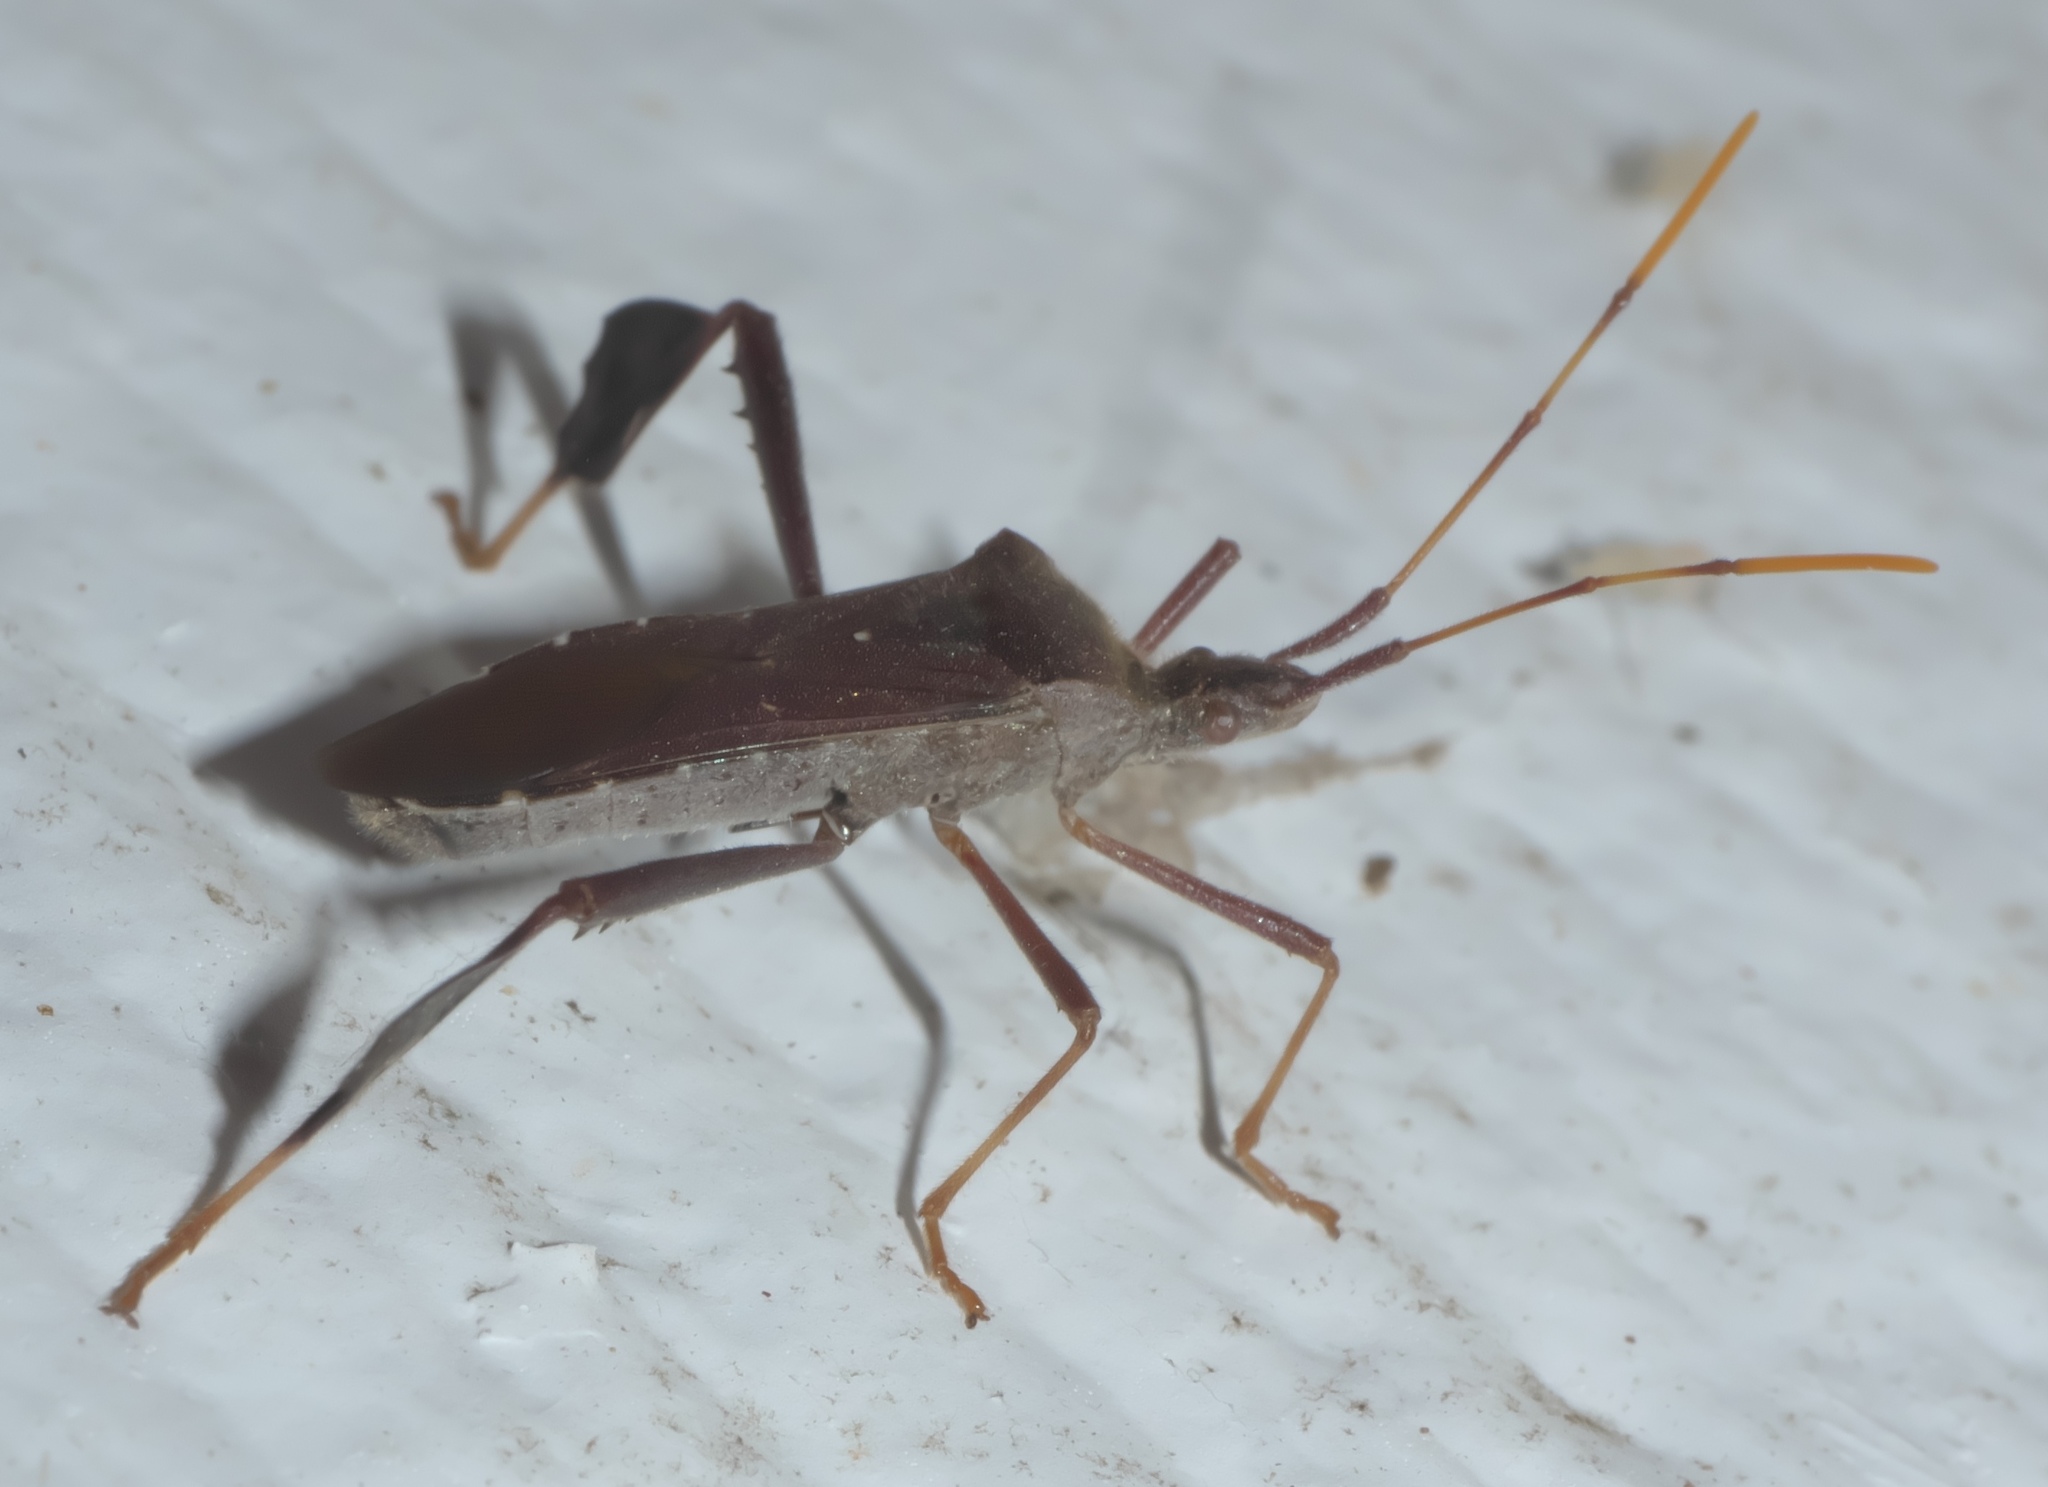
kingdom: Animalia
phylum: Arthropoda
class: Insecta
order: Hemiptera
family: Coreidae
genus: Leptoglossus
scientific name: Leptoglossus oppositus
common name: Northern leaf-footed bug
